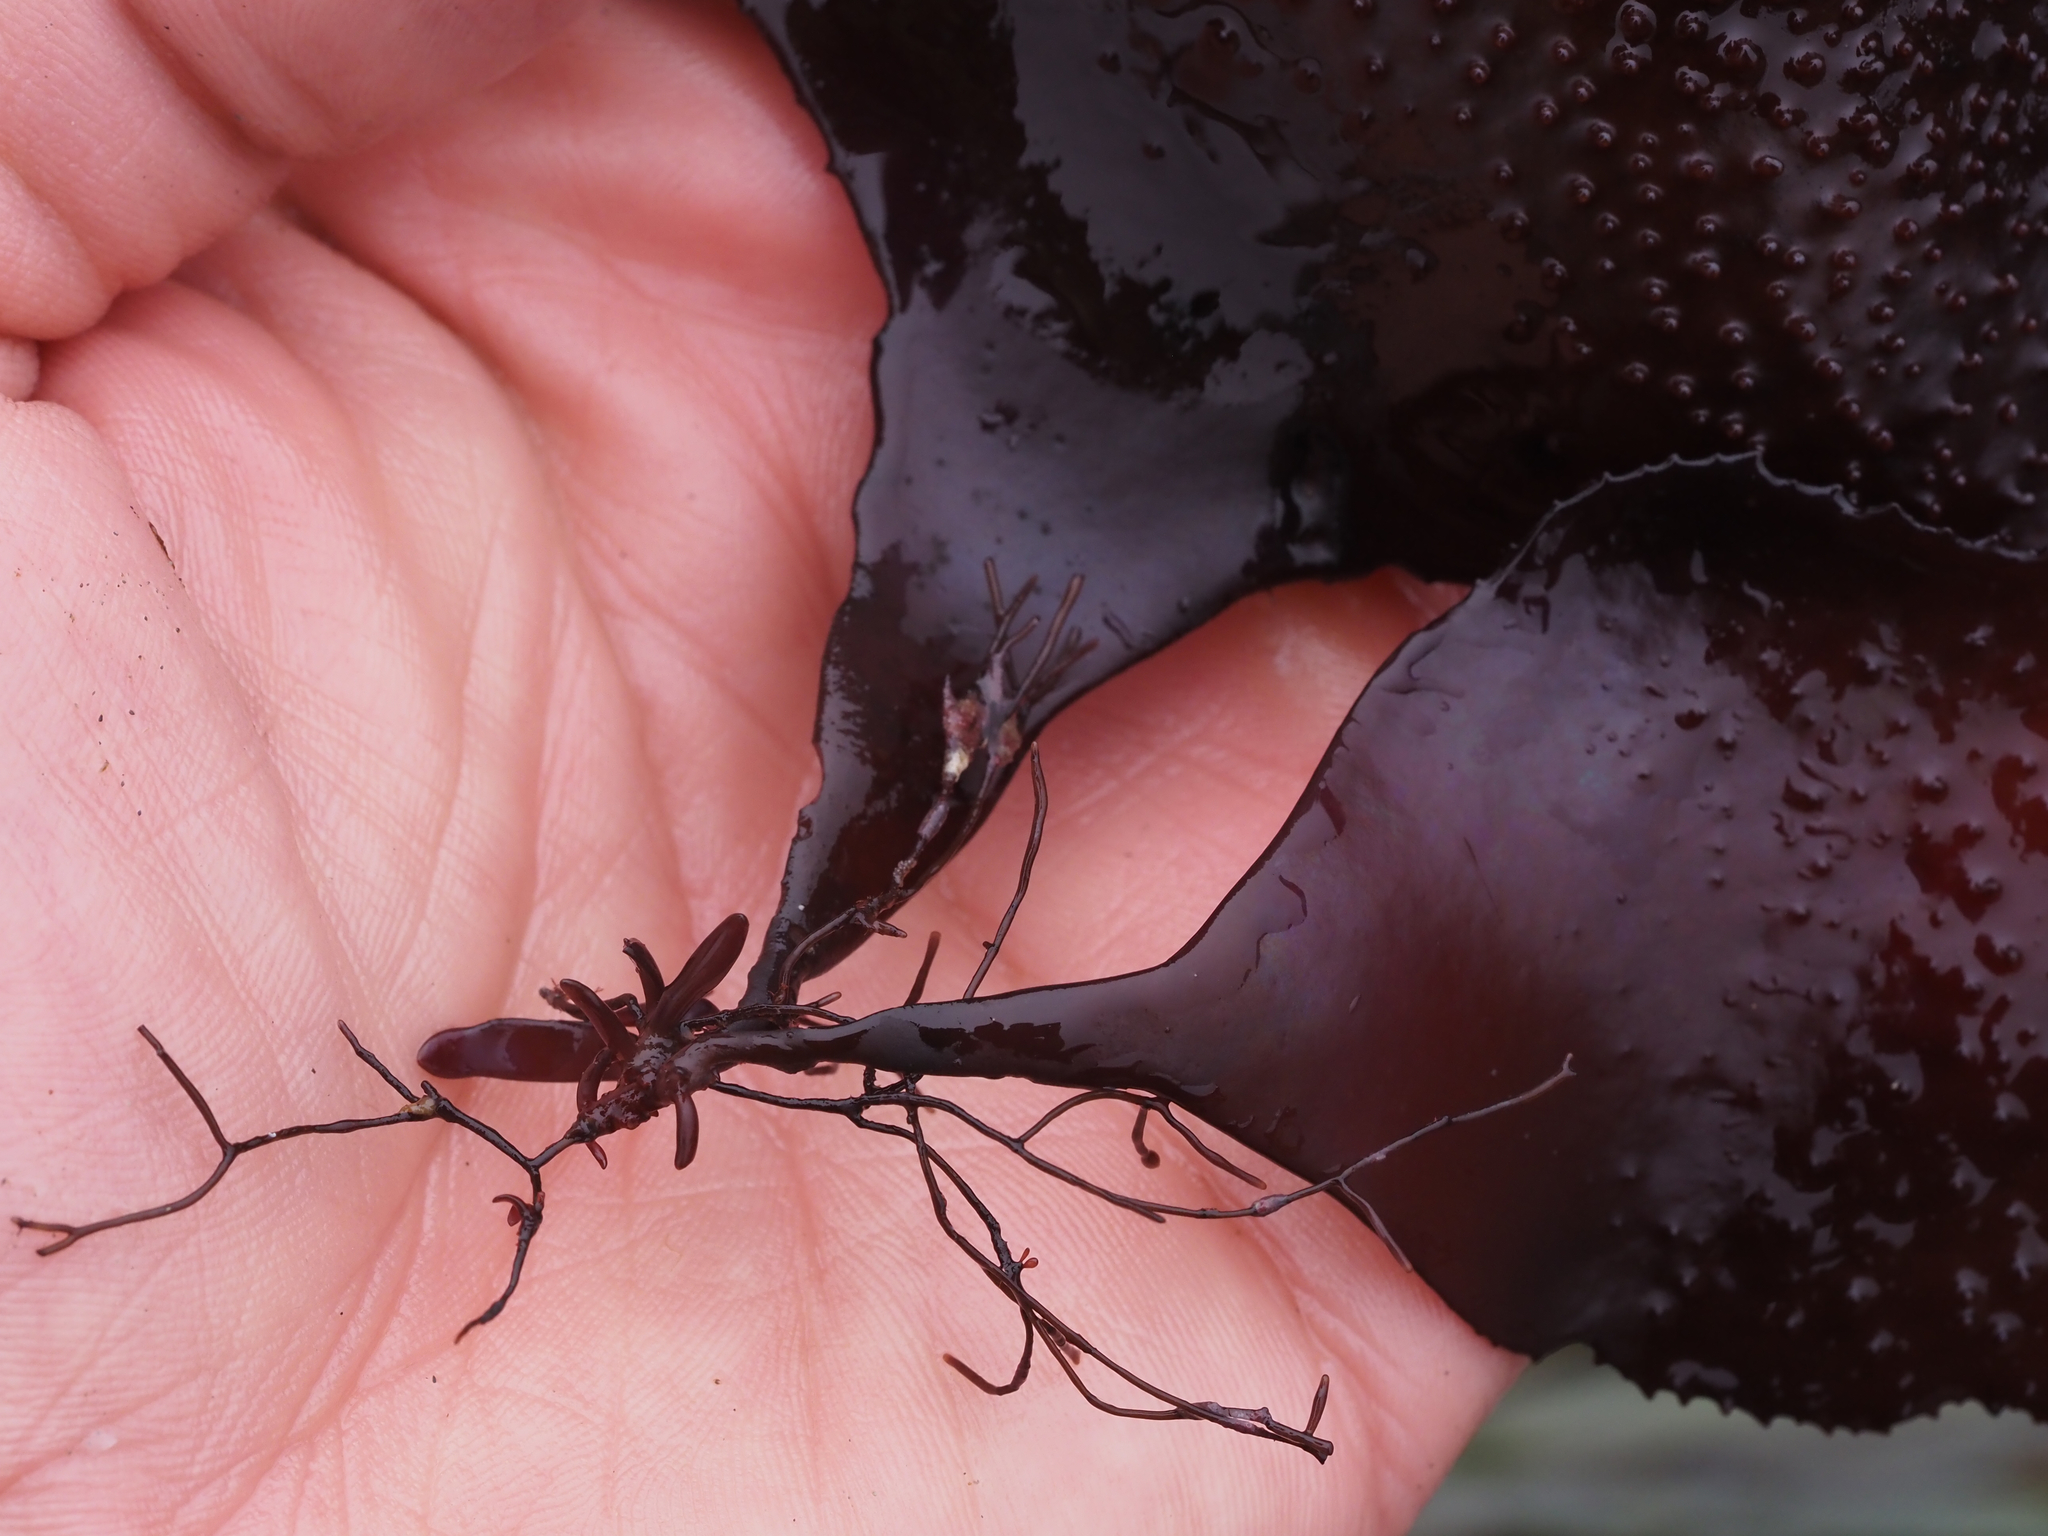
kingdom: Plantae
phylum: Rhodophyta
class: Florideophyceae
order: Gigartinales
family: Gigartinaceae
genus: Chondracanthus
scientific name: Chondracanthus exasperatus
